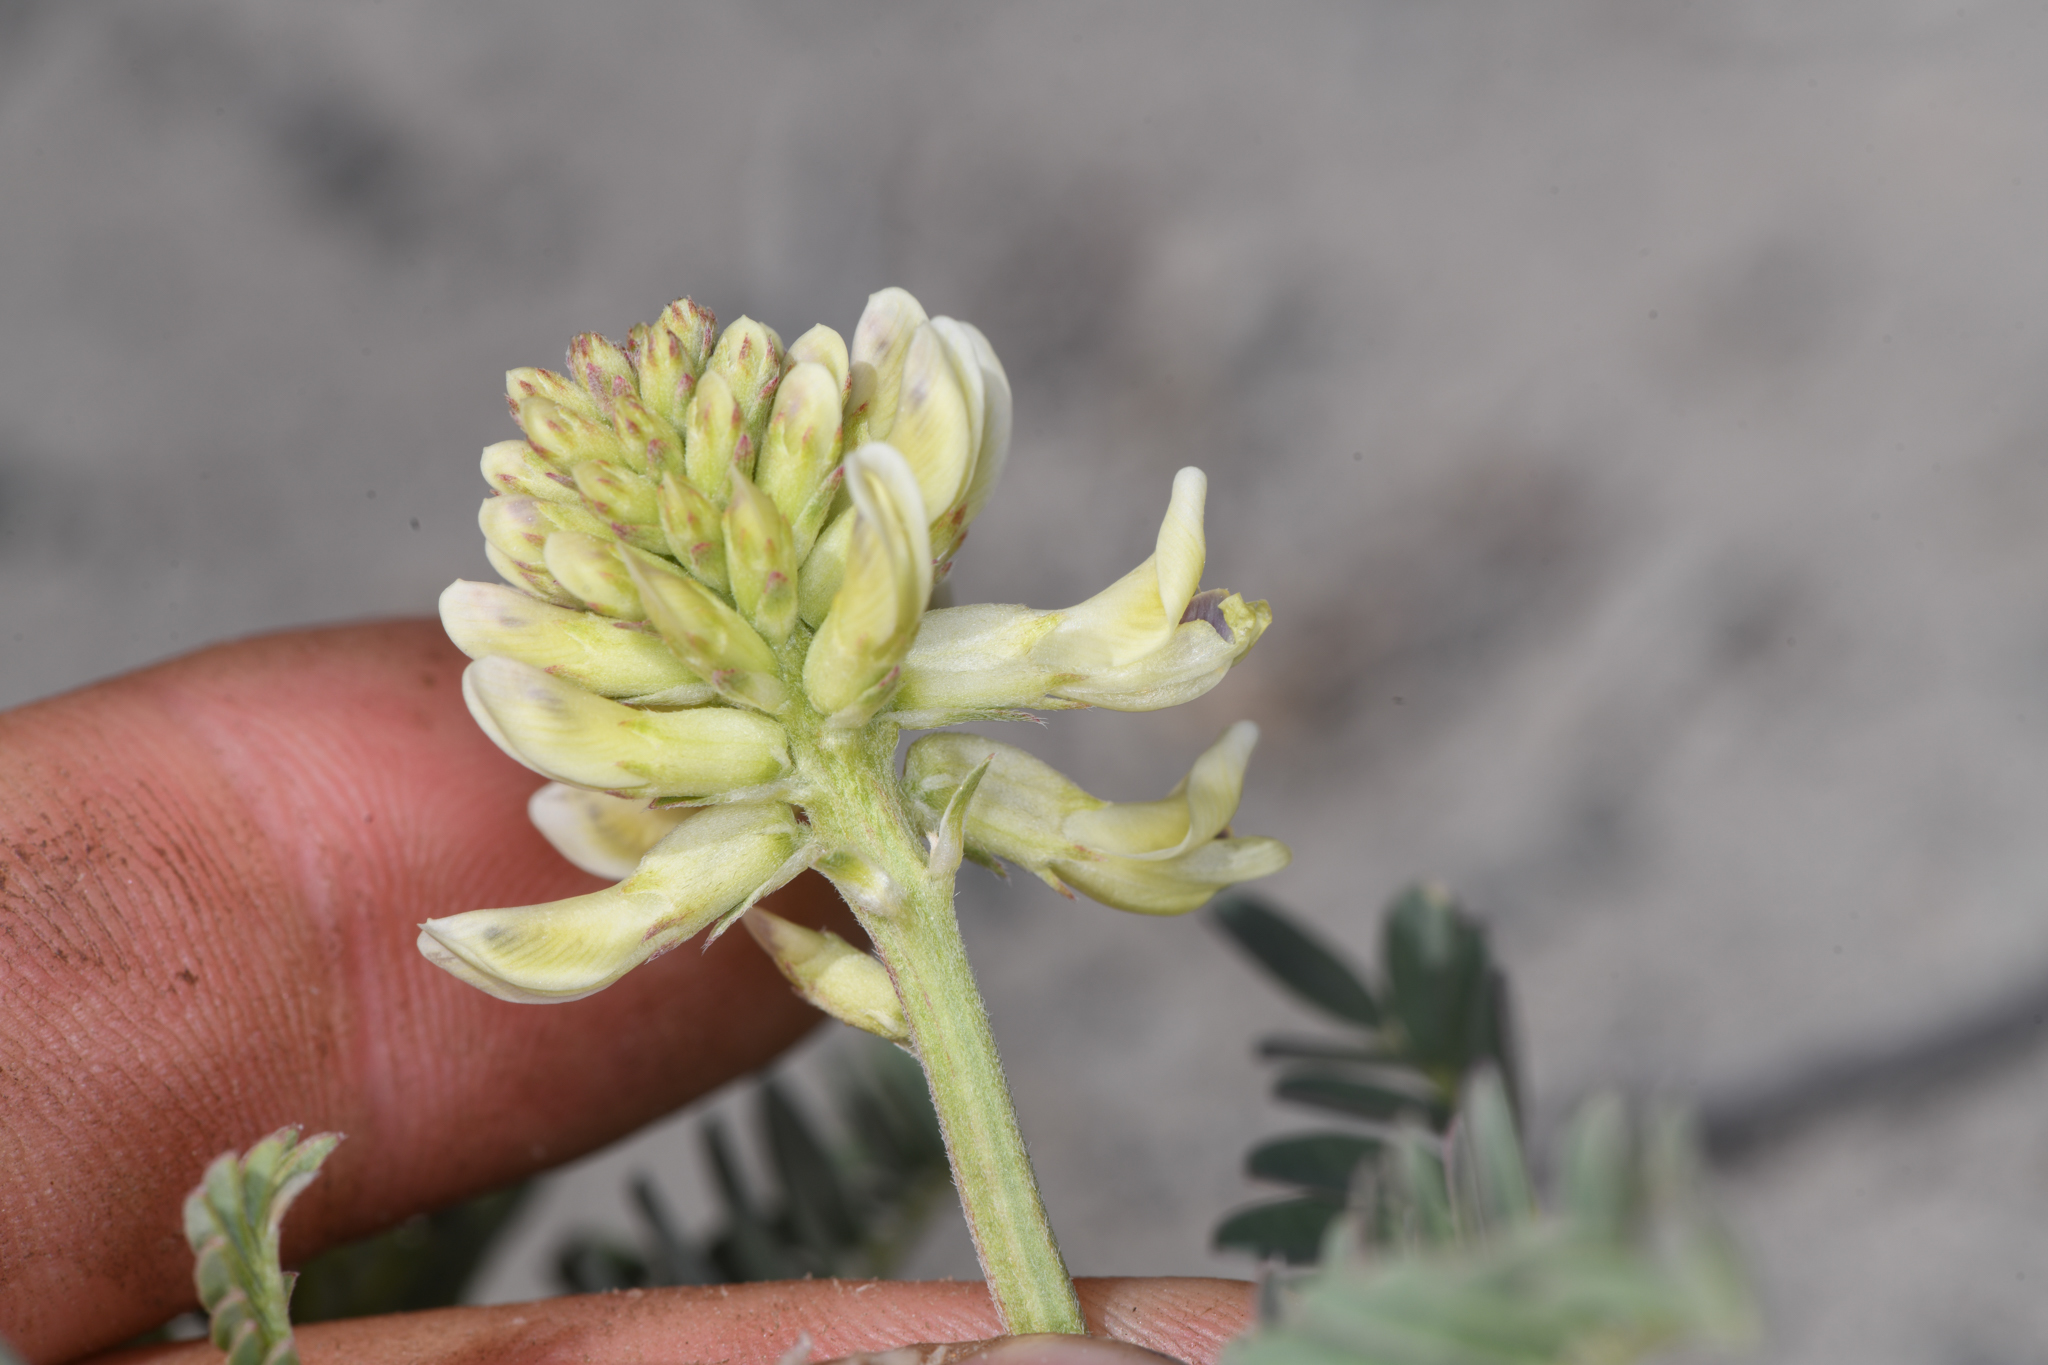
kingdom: Plantae
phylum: Tracheophyta
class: Magnoliopsida
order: Fabales
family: Fabaceae
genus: Astragalus
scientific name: Astragalus canadensis
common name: Canada milk-vetch
